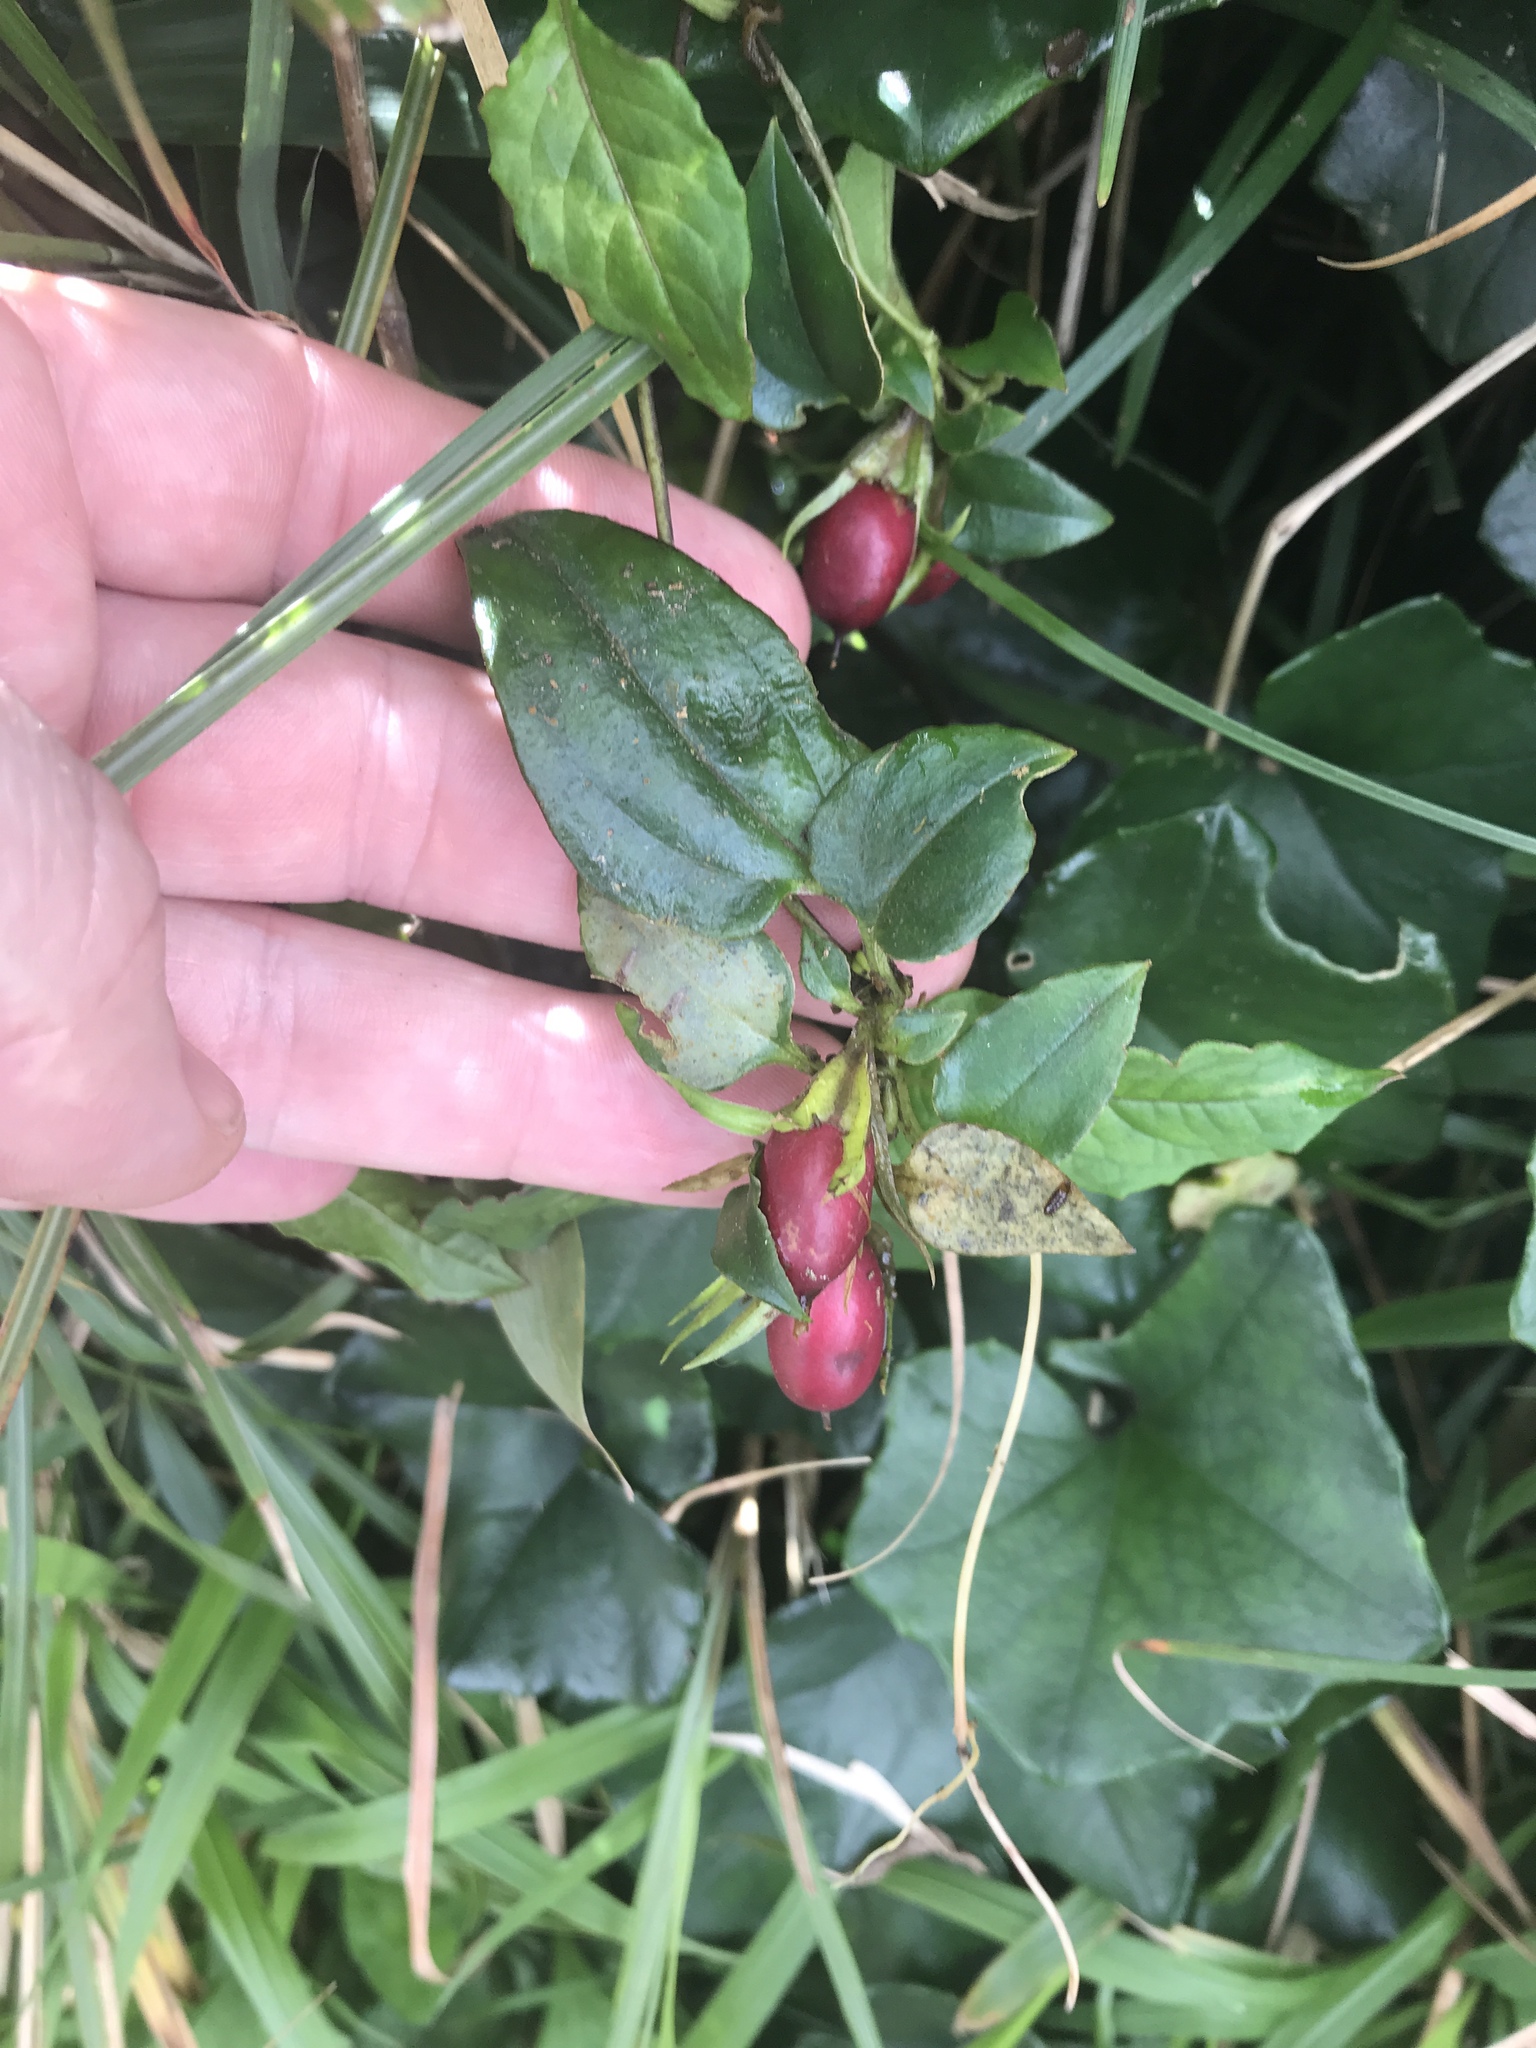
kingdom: Plantae
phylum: Tracheophyta
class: Magnoliopsida
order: Gentianales
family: Gentianaceae
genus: Tripterospermum
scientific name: Tripterospermum alutaceifolium
